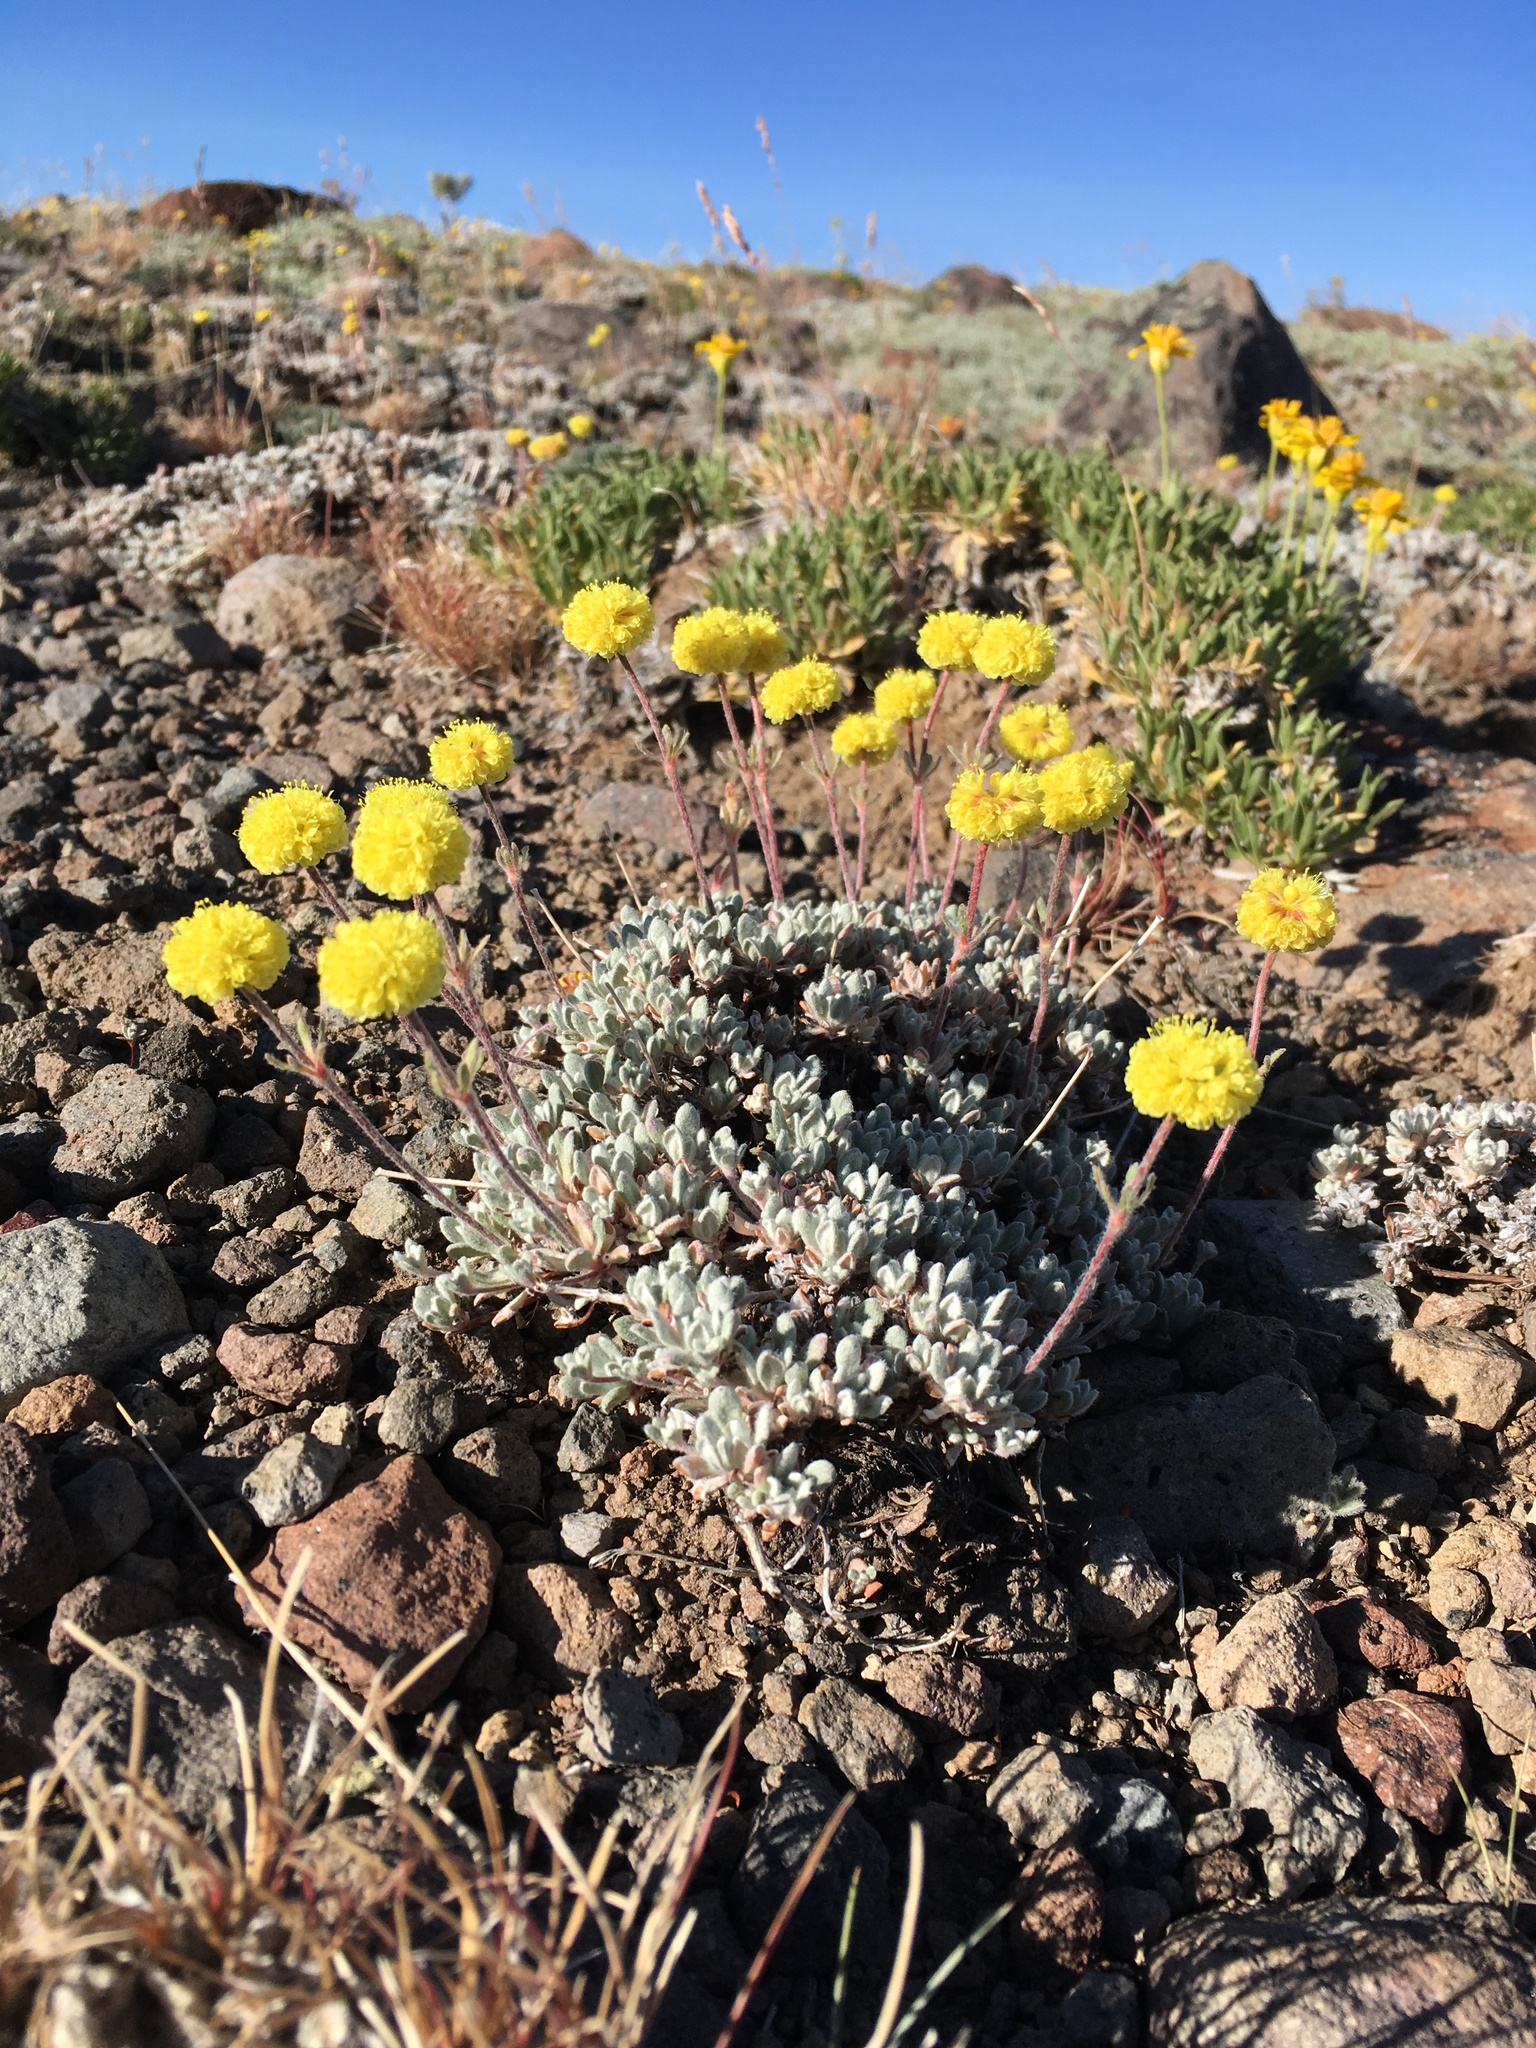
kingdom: Plantae
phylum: Tracheophyta
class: Magnoliopsida
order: Caryophyllales
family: Polygonaceae
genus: Eriogonum
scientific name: Eriogonum douglasii
